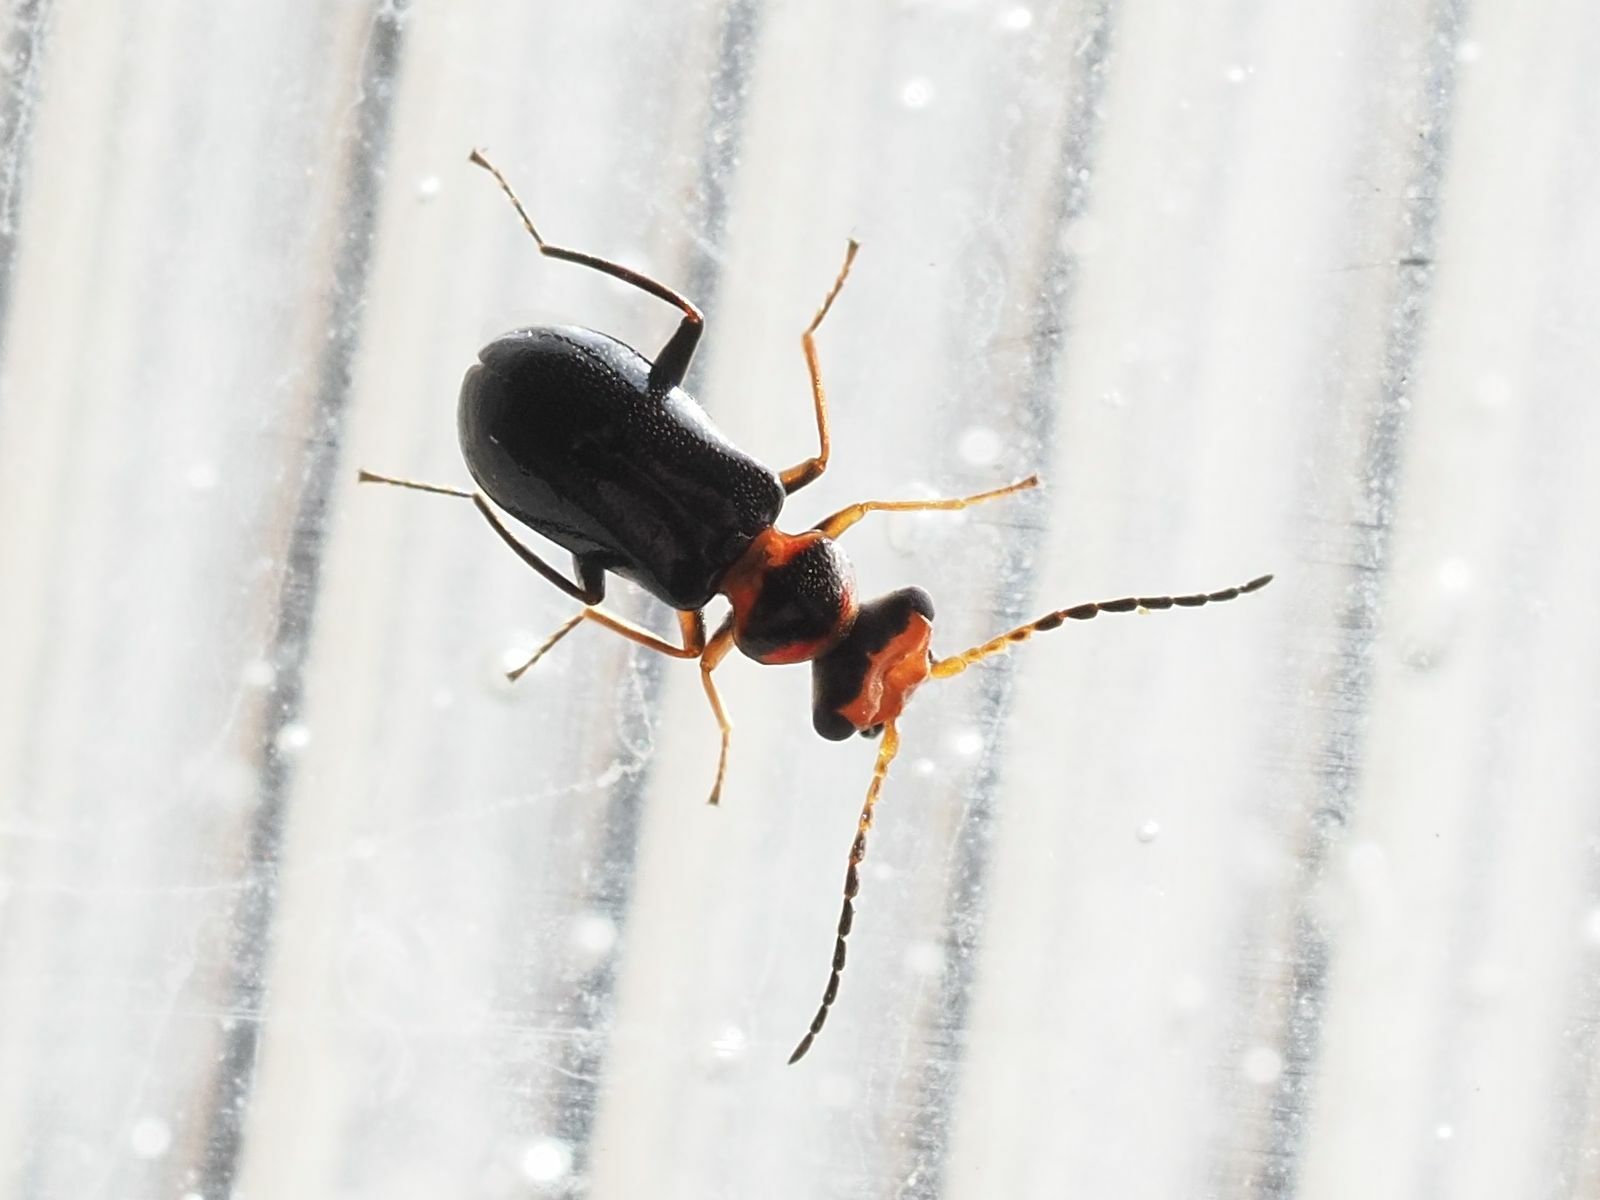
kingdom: Animalia
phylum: Arthropoda
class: Insecta
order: Coleoptera
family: Melyridae
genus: Troglops
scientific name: Troglops albicans
